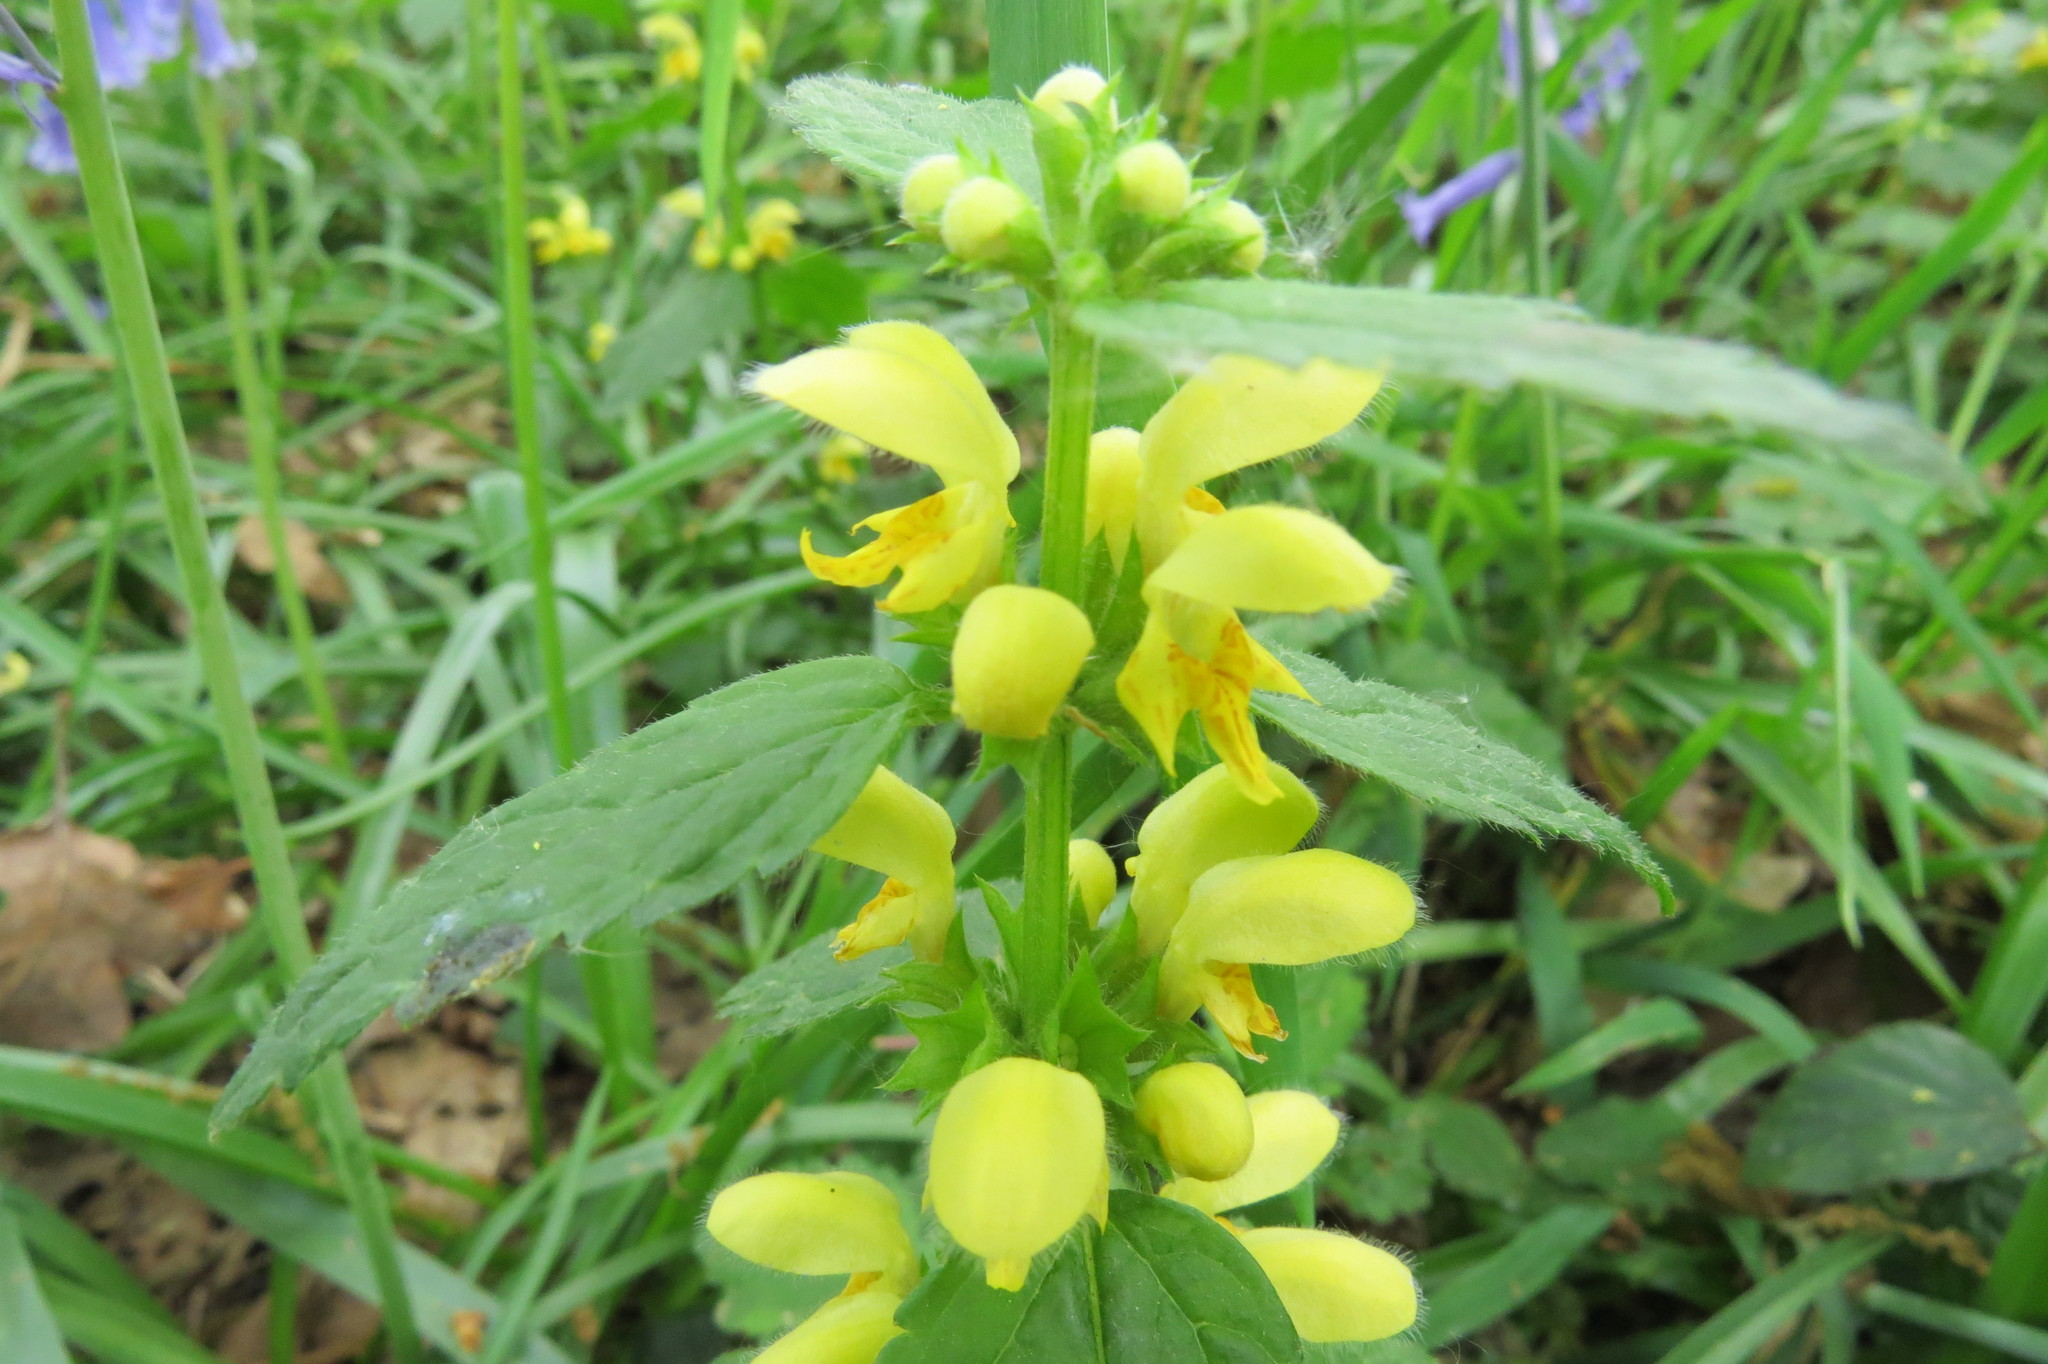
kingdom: Plantae
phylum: Tracheophyta
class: Magnoliopsida
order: Lamiales
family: Lamiaceae
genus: Lamium
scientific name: Lamium galeobdolon
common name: Yellow archangel
